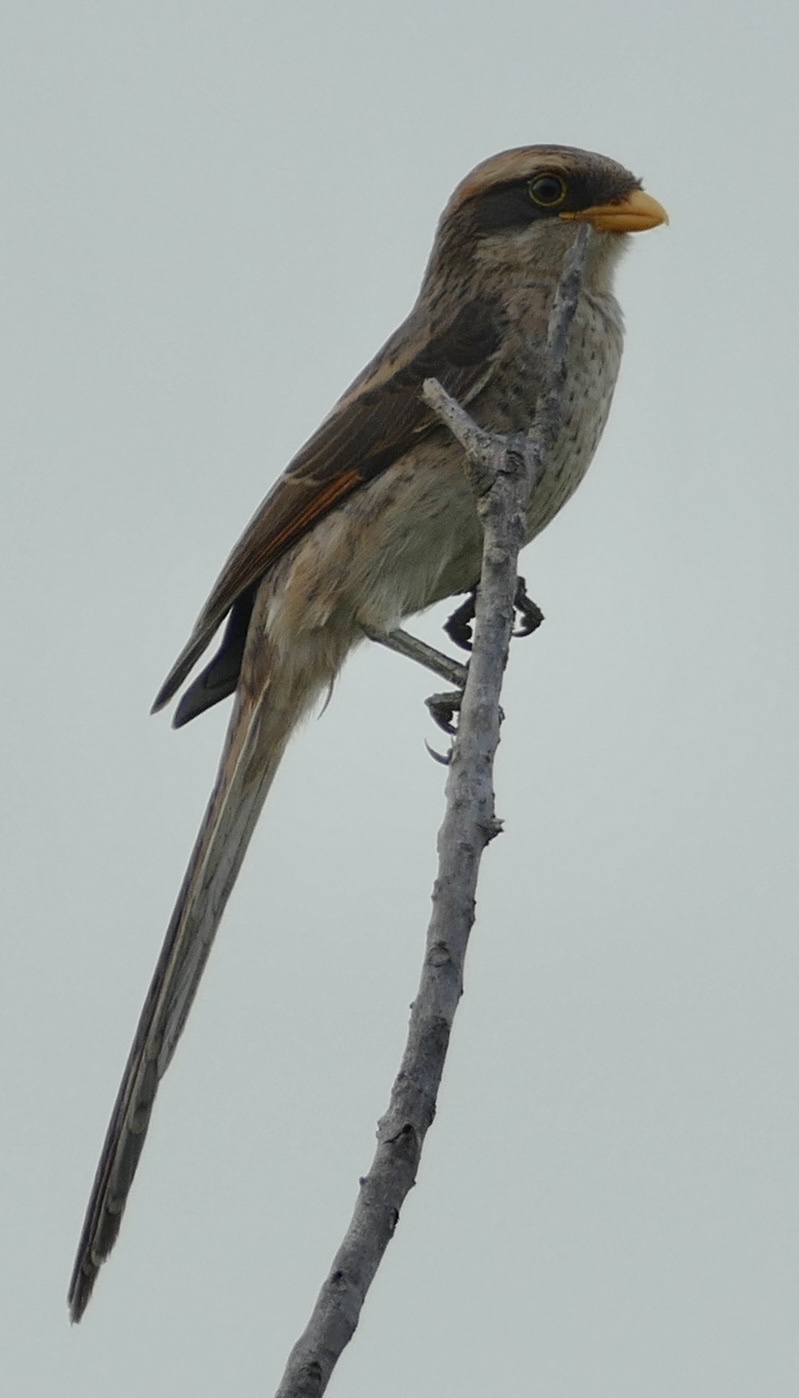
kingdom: Animalia
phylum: Chordata
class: Aves
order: Passeriformes
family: Laniidae
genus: Corvinella
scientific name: Corvinella corvina
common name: Yellow-billed shrike
